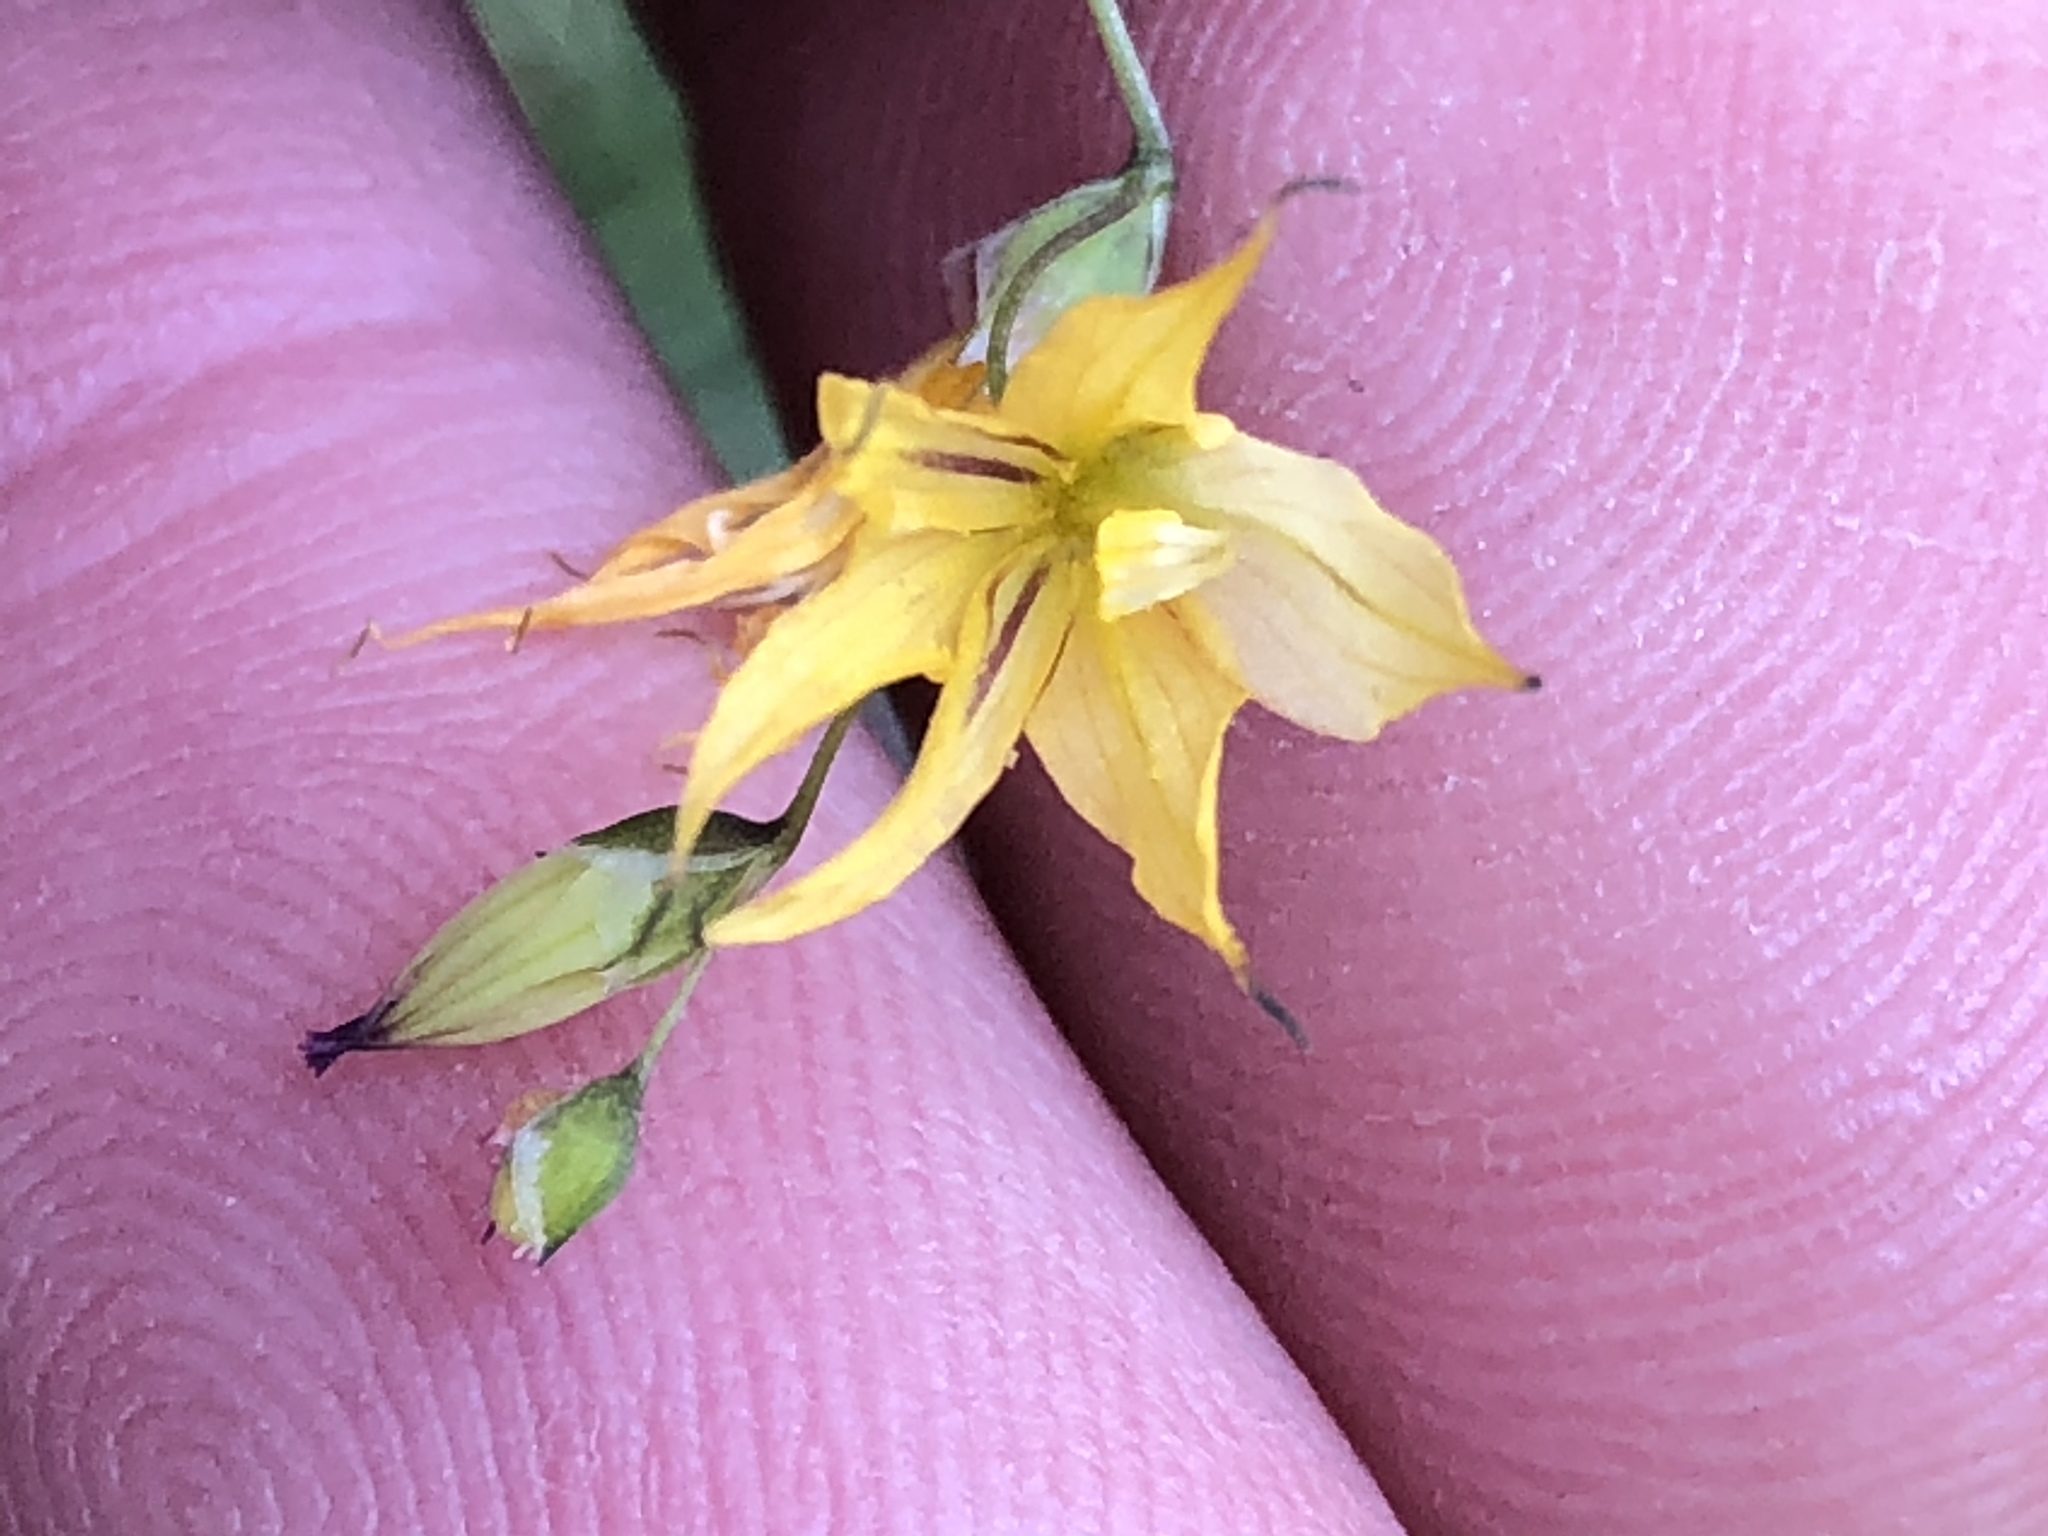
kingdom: Plantae
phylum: Tracheophyta
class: Liliopsida
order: Asparagales
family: Iridaceae
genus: Melasphaerula
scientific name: Melasphaerula graminea
